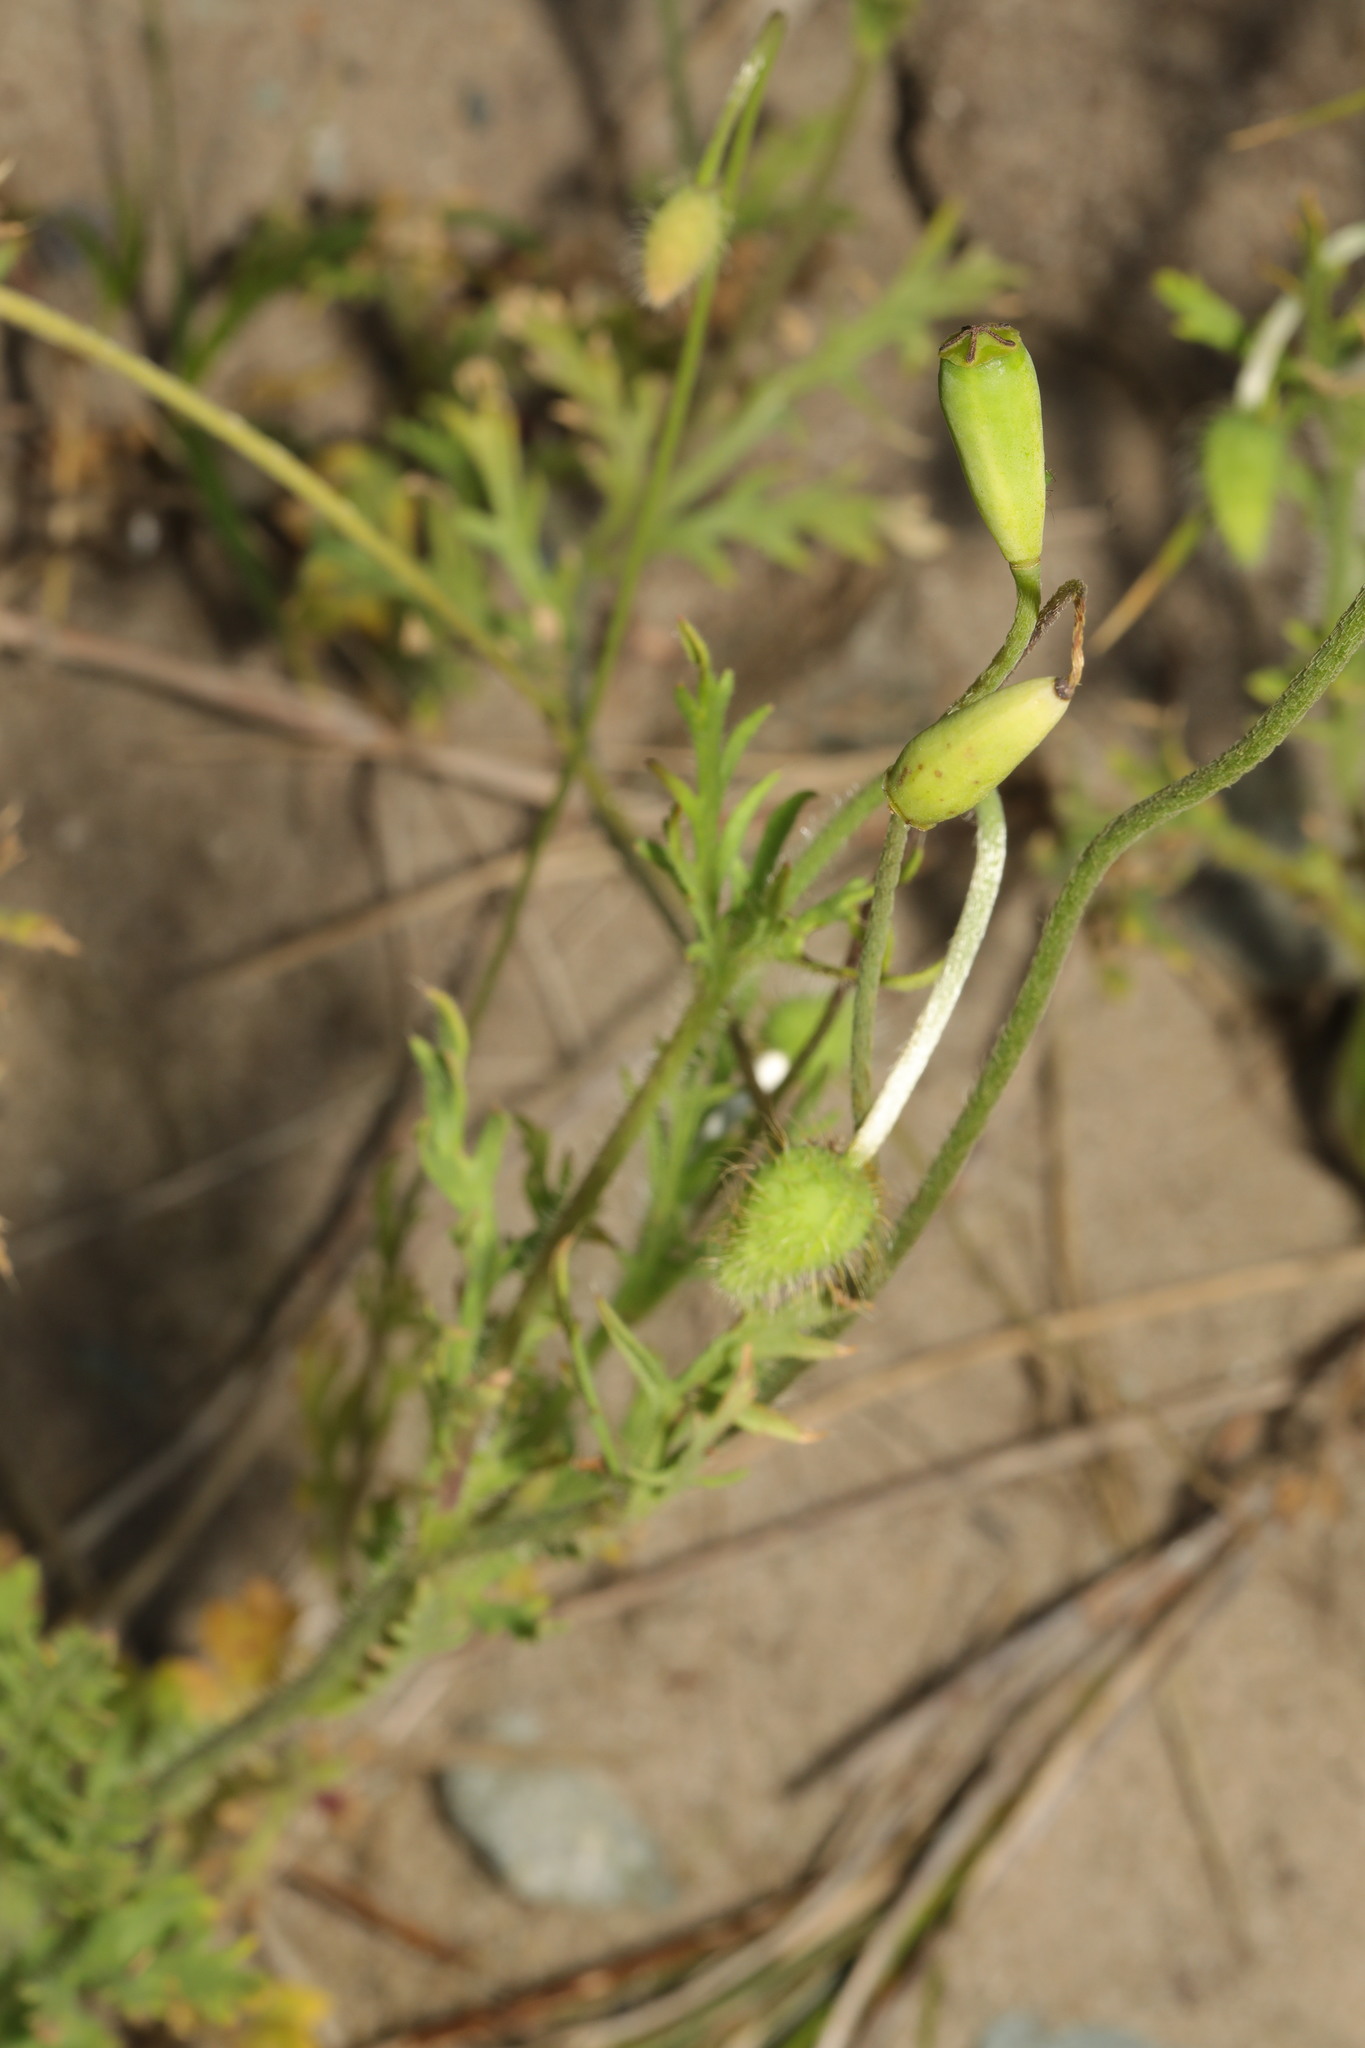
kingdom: Plantae
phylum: Tracheophyta
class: Magnoliopsida
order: Ranunculales
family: Papaveraceae
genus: Papaver
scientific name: Papaver dubium
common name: Long-headed poppy
